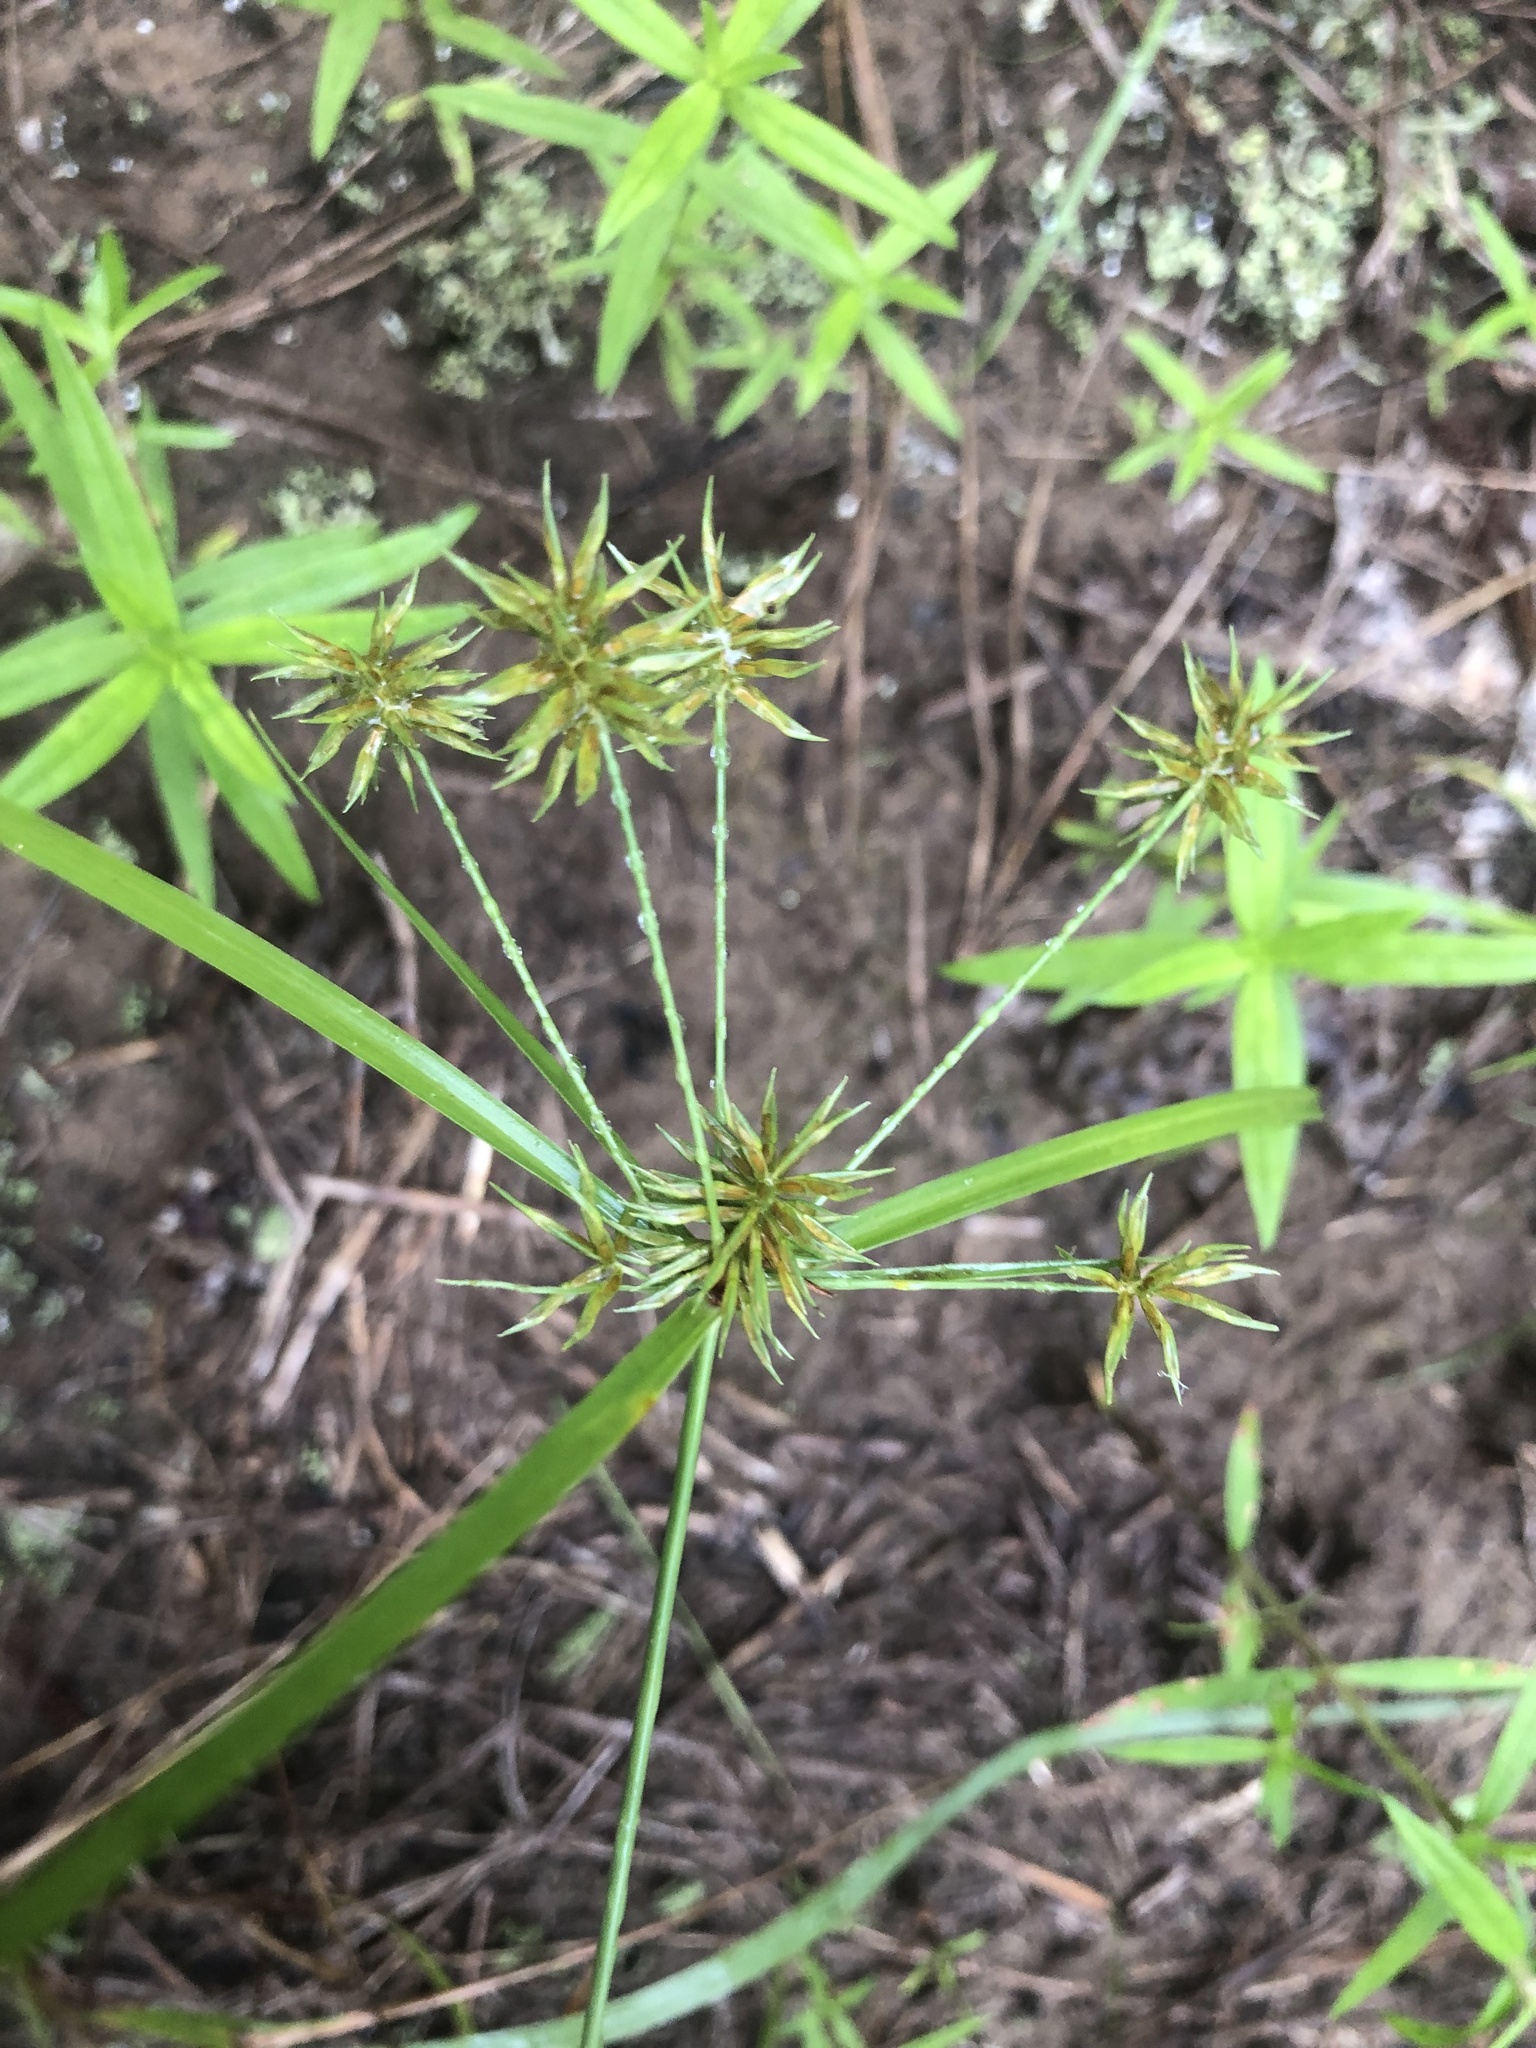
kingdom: Plantae
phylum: Tracheophyta
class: Liliopsida
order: Poales
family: Cyperaceae
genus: Cyperus
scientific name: Cyperus retroflexus
